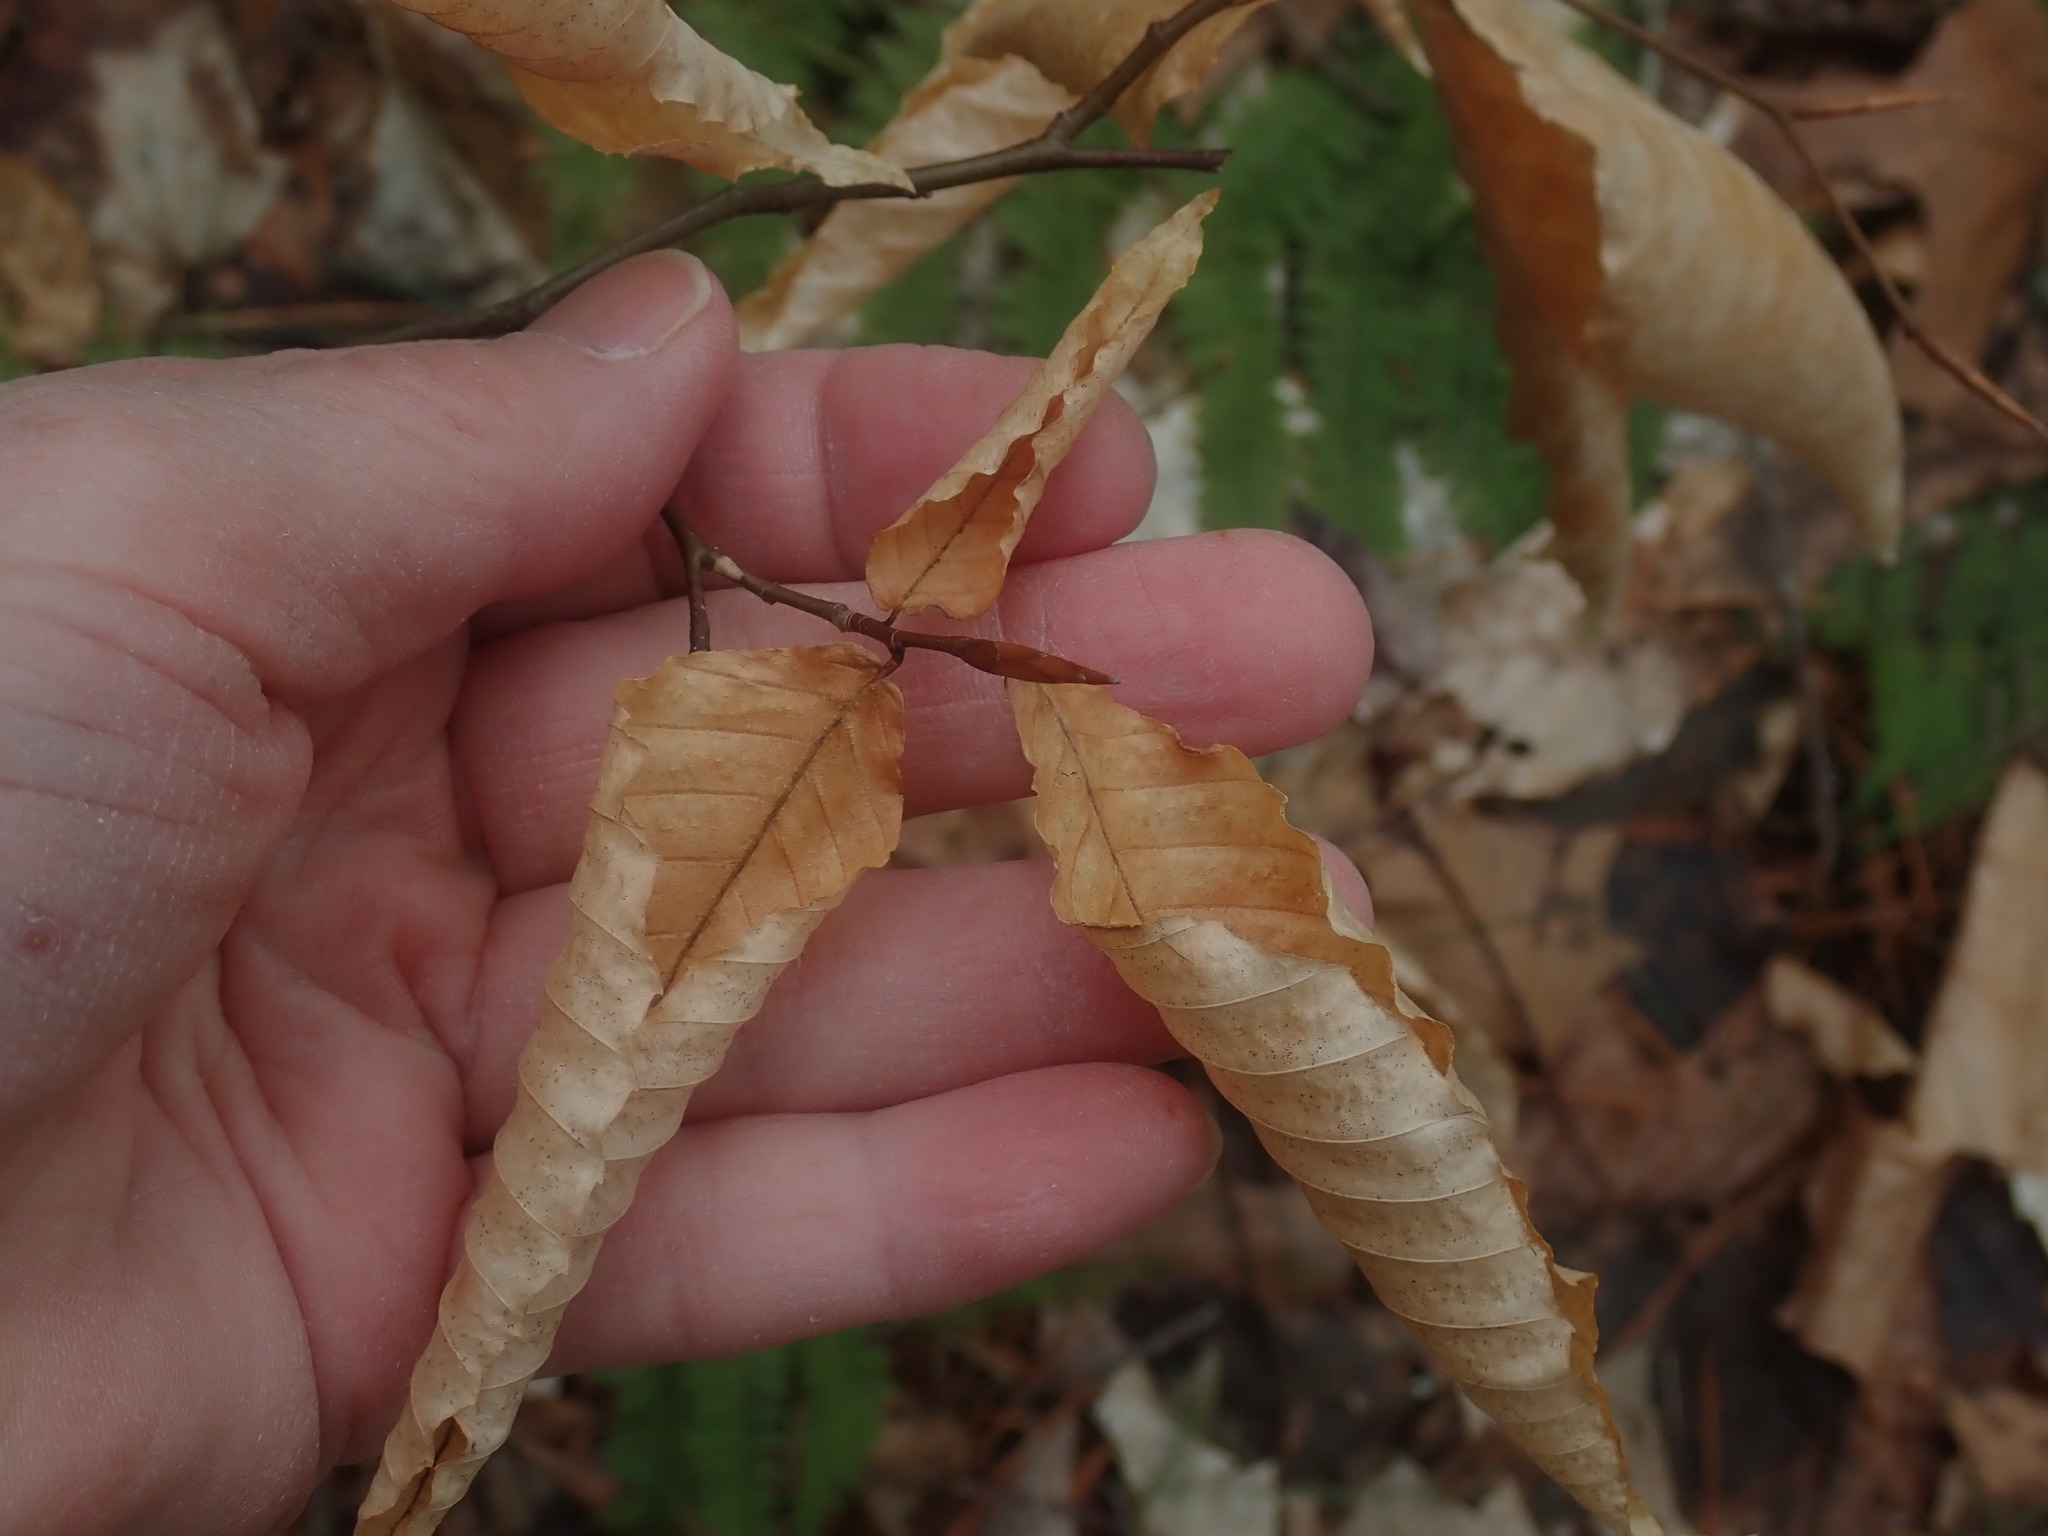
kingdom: Plantae
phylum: Tracheophyta
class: Magnoliopsida
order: Fagales
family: Fagaceae
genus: Fagus
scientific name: Fagus grandifolia
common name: American beech
